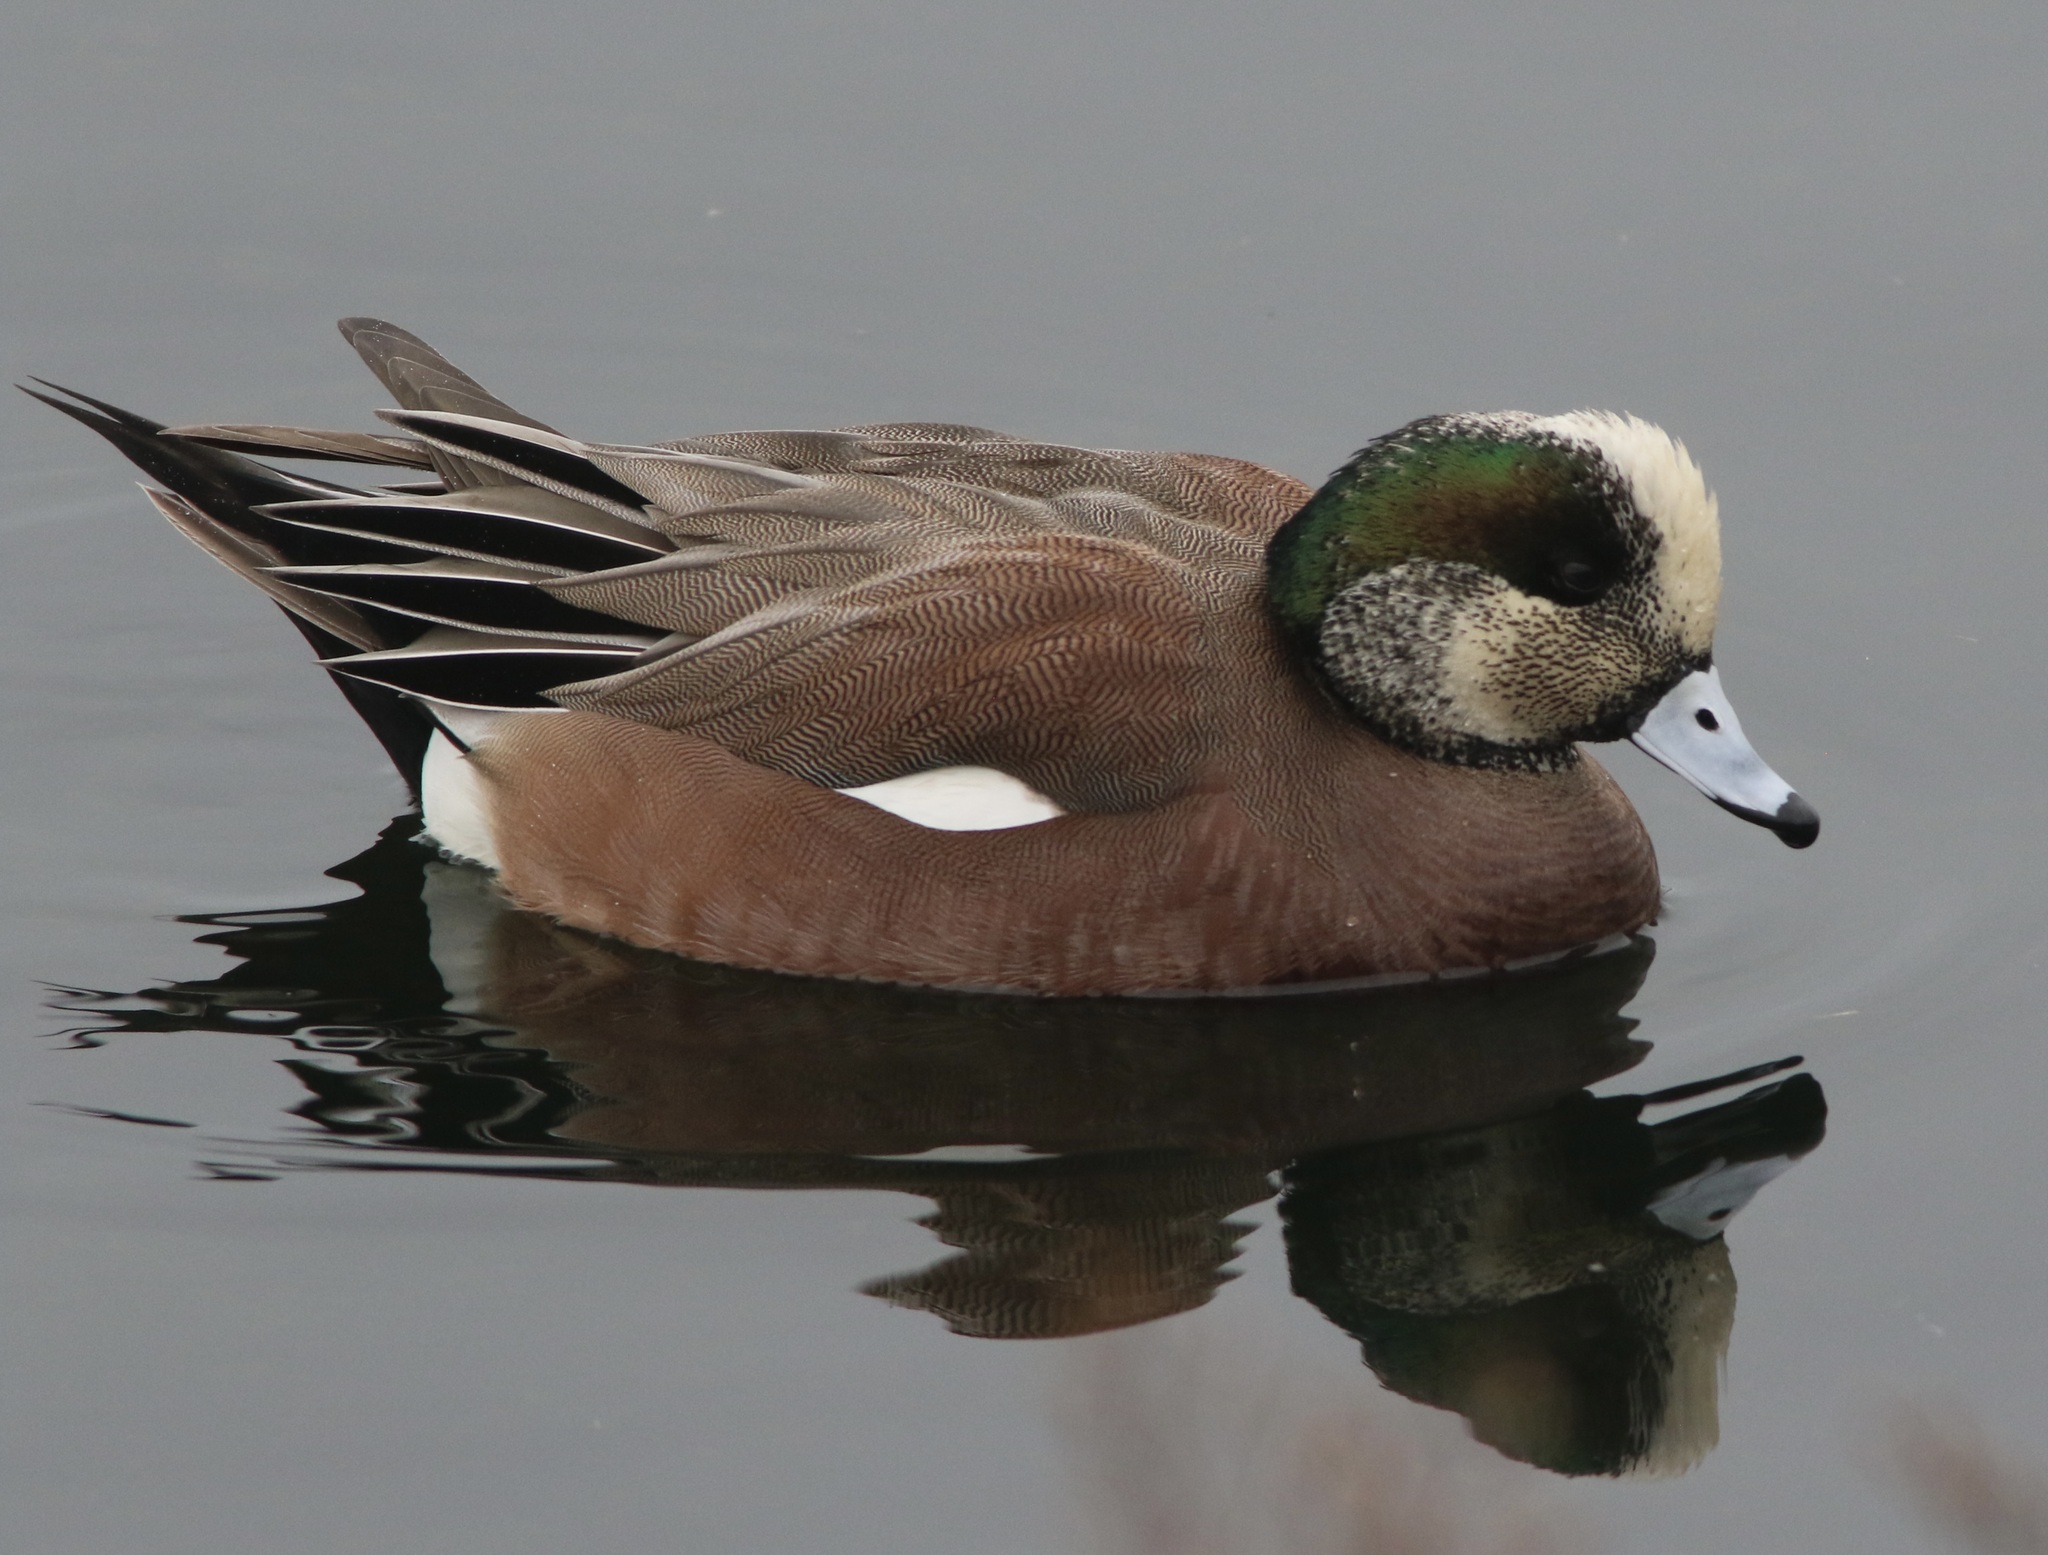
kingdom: Animalia
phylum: Chordata
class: Aves
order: Anseriformes
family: Anatidae
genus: Mareca
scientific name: Mareca americana
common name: American wigeon
